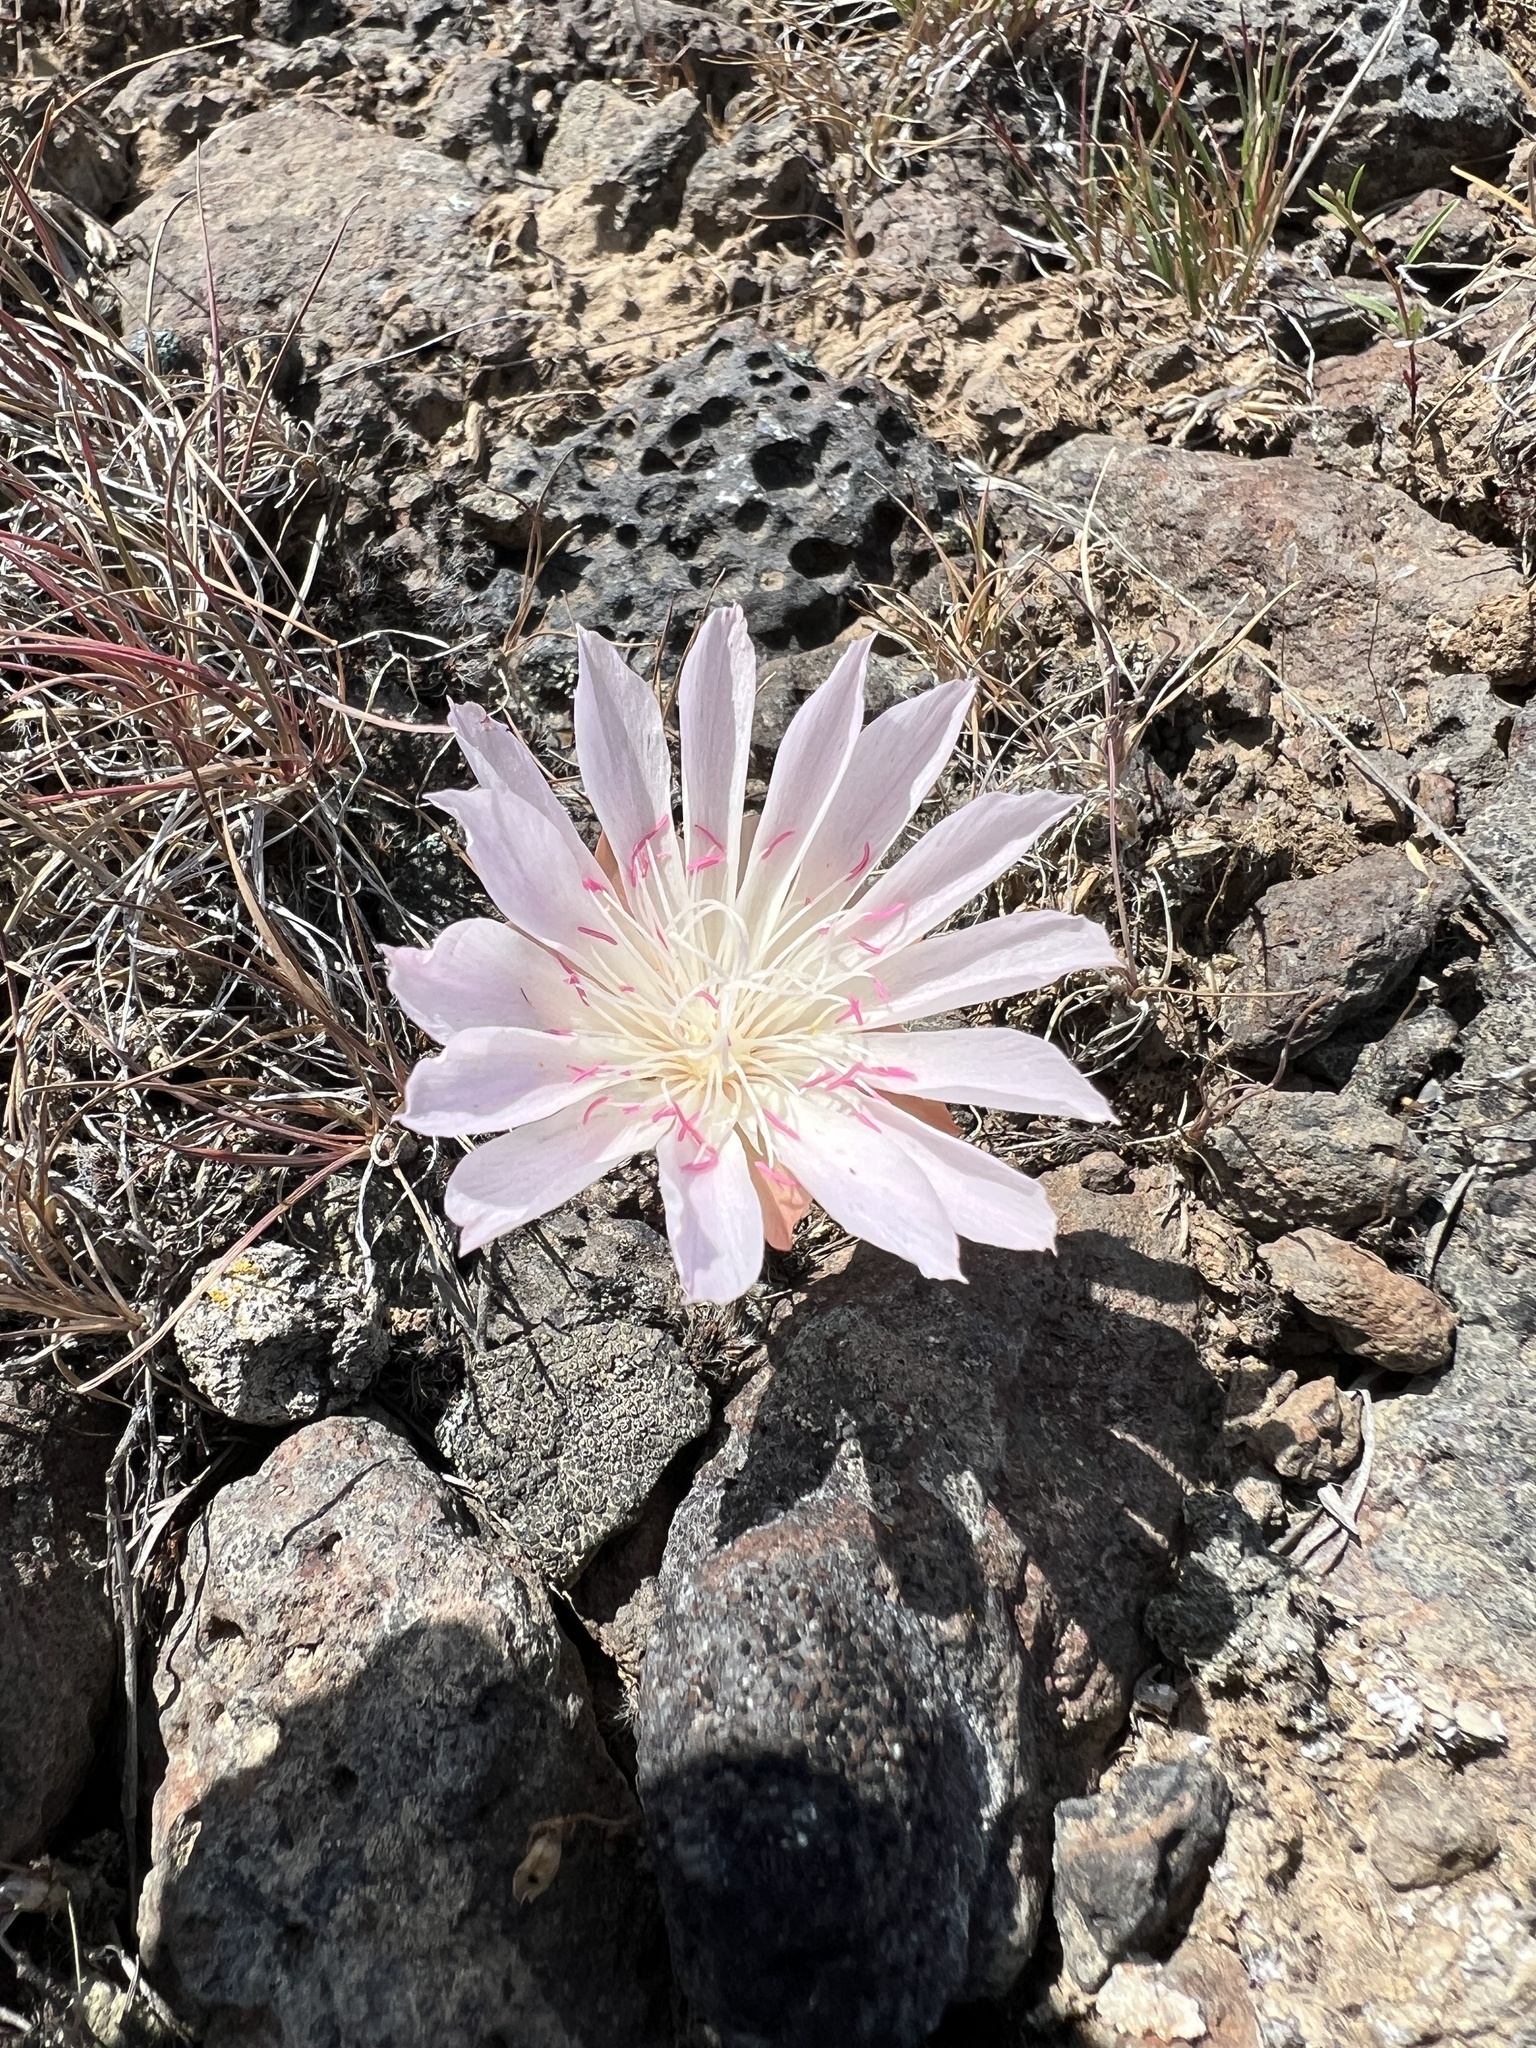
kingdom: Plantae
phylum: Tracheophyta
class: Magnoliopsida
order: Caryophyllales
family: Montiaceae
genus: Lewisia
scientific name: Lewisia rediviva
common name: Bitter-root
